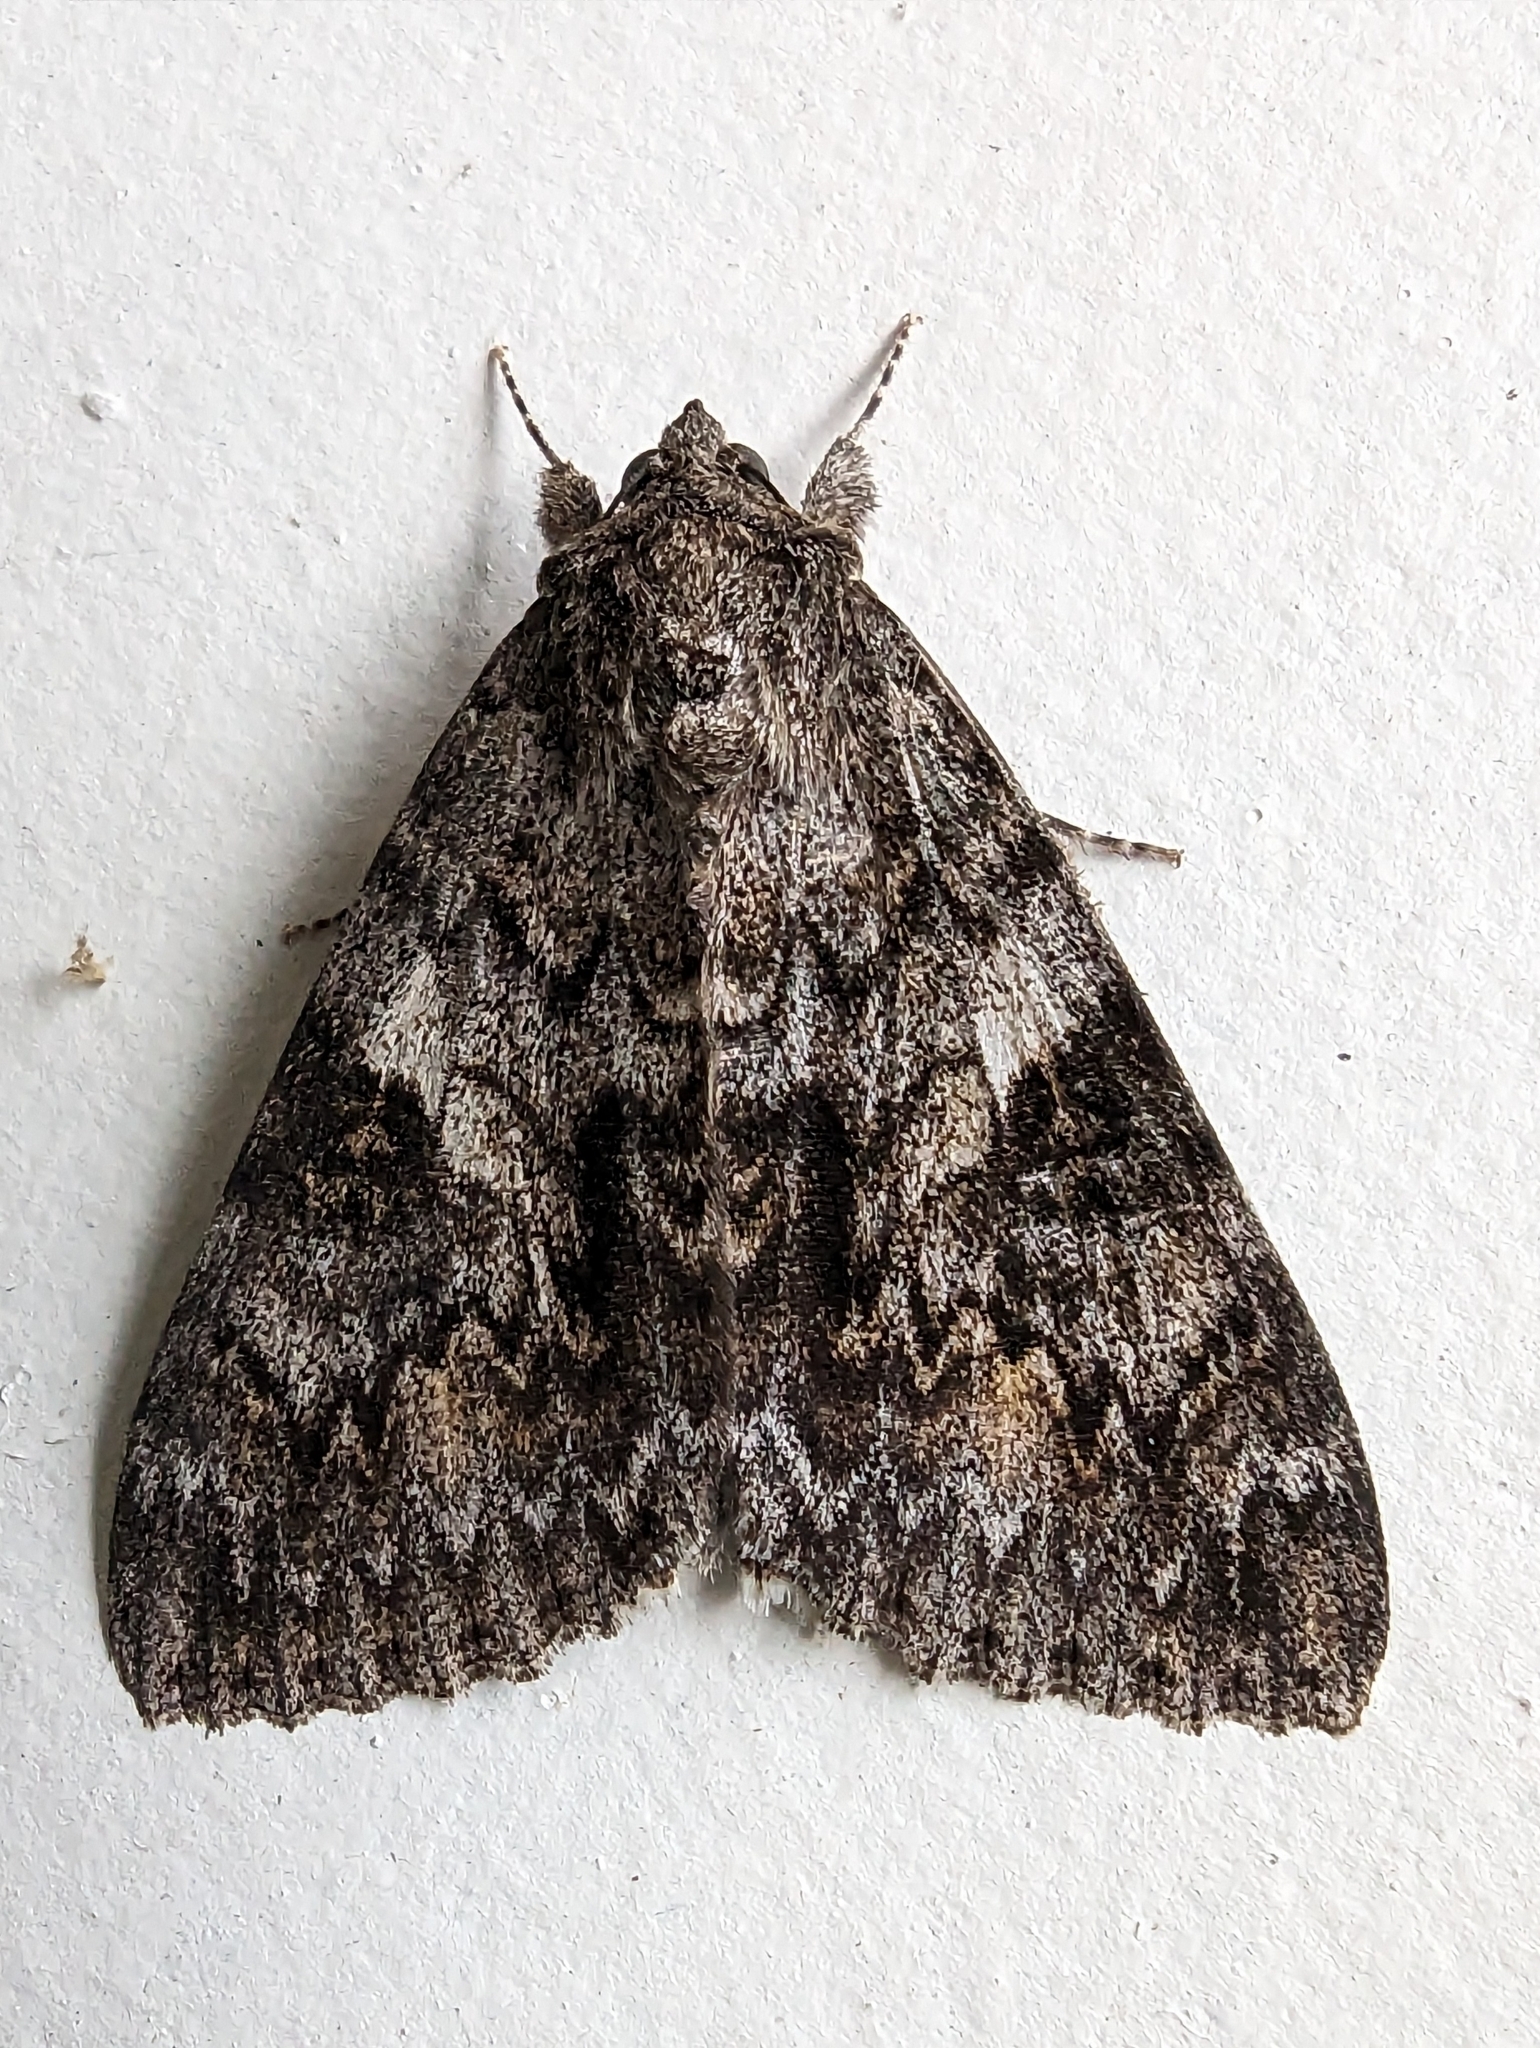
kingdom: Animalia
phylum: Arthropoda
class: Insecta
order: Lepidoptera
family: Erebidae
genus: Catocala
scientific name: Catocala
